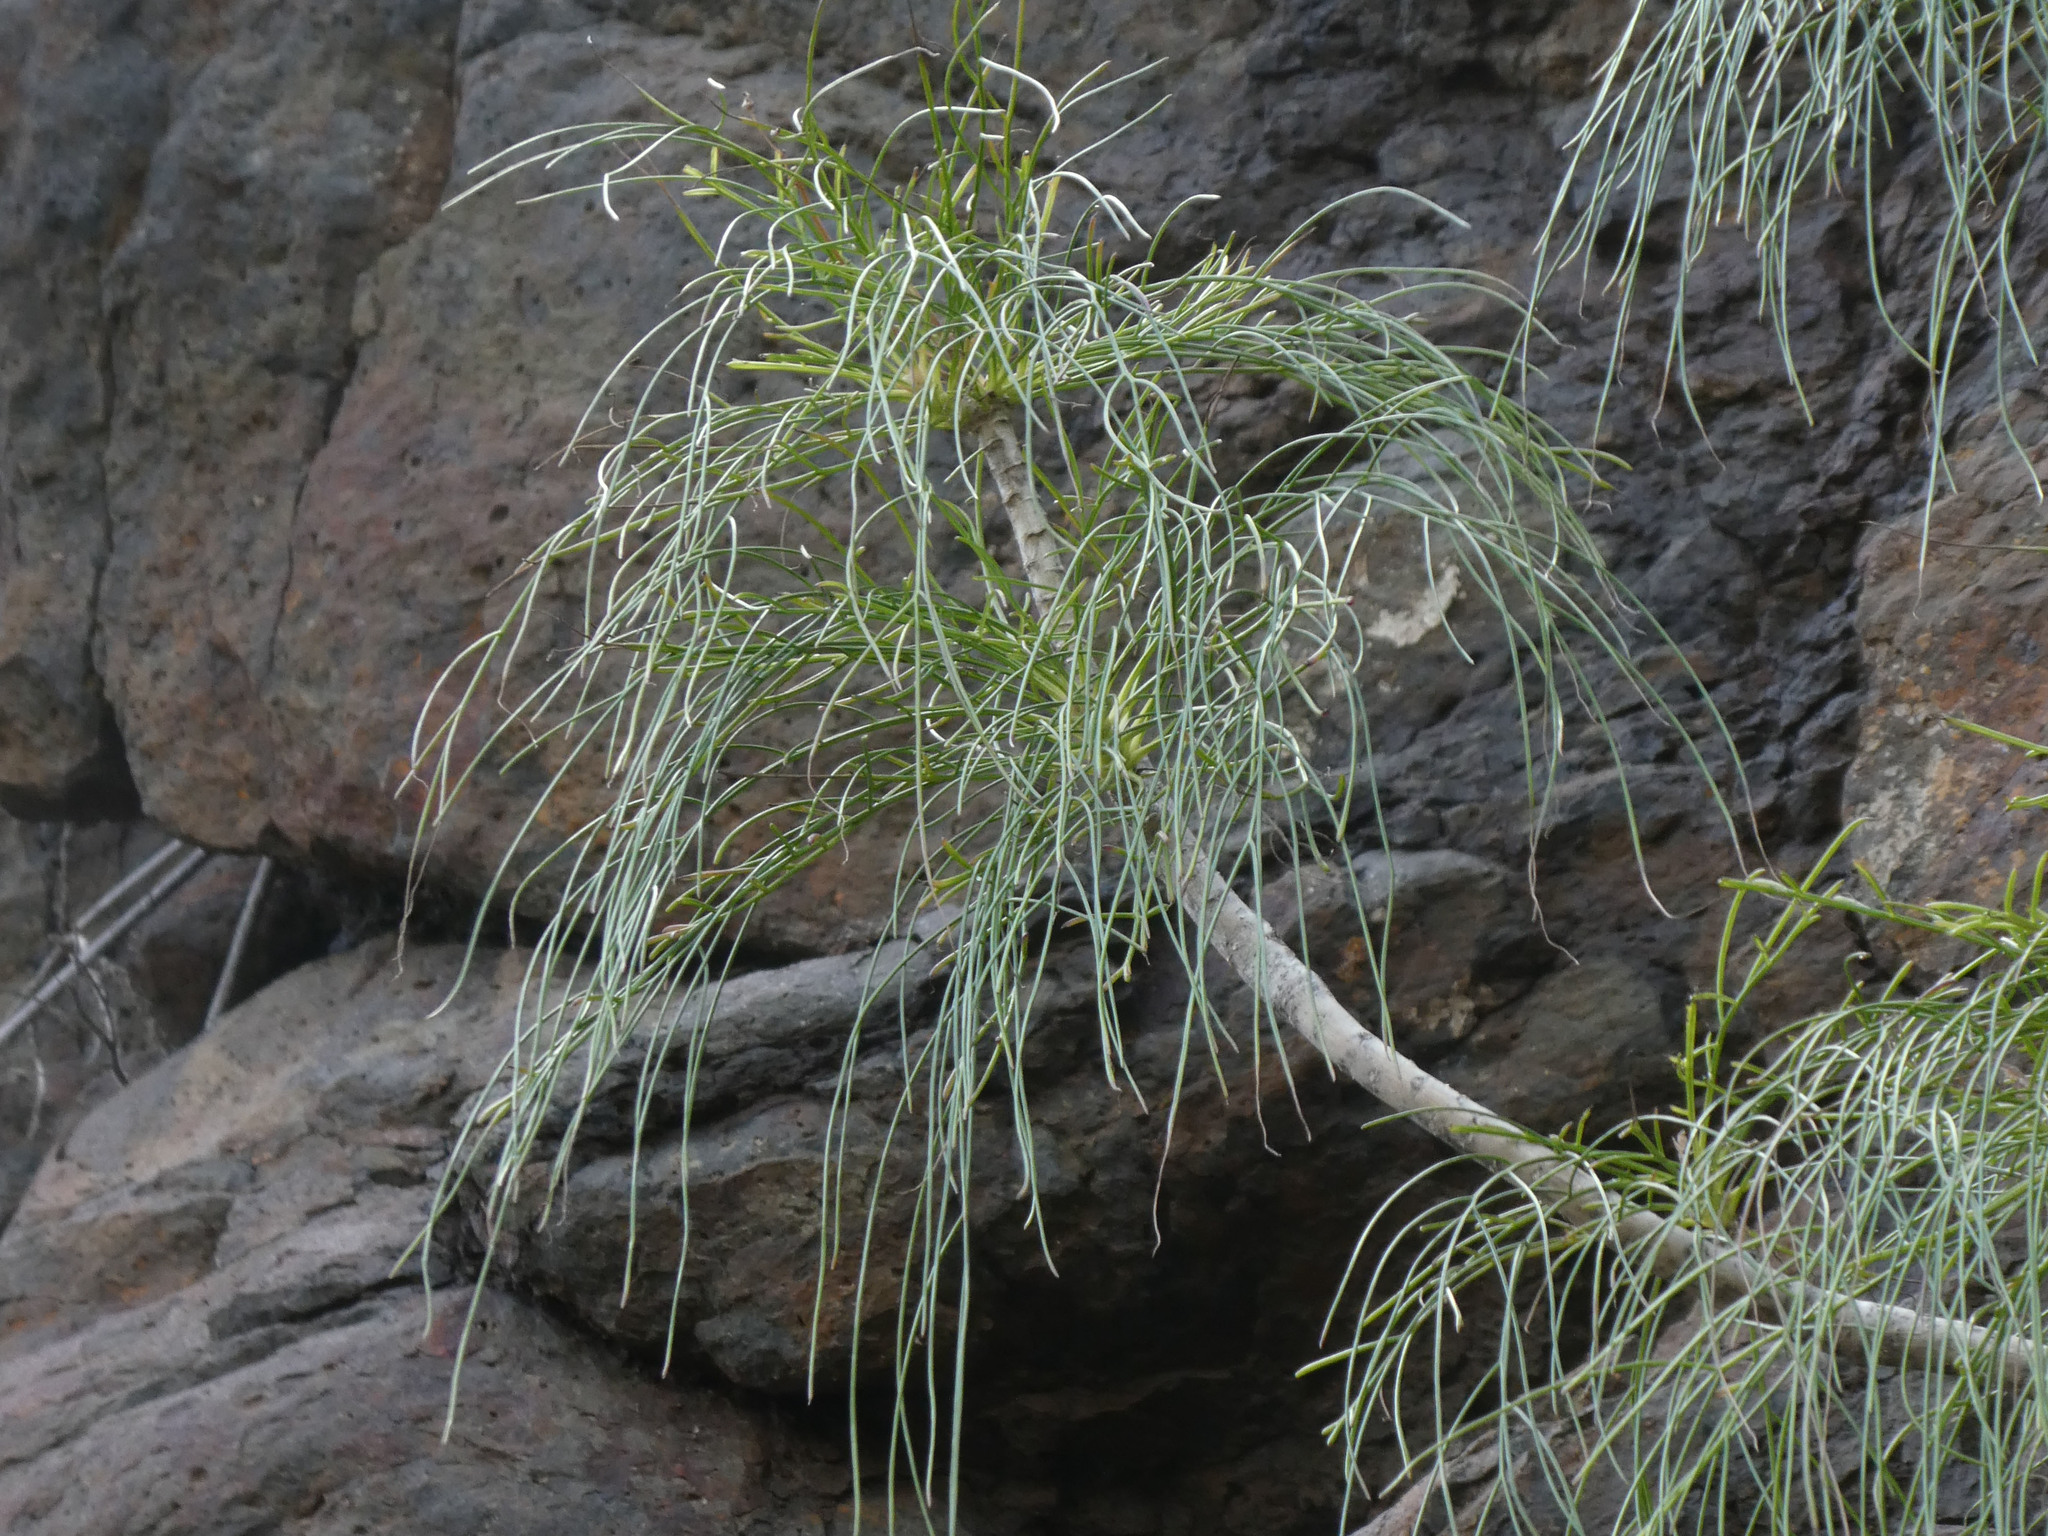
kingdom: Plantae
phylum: Tracheophyta
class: Magnoliopsida
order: Asterales
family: Asteraceae
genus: Sonchus
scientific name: Sonchus capillaris
